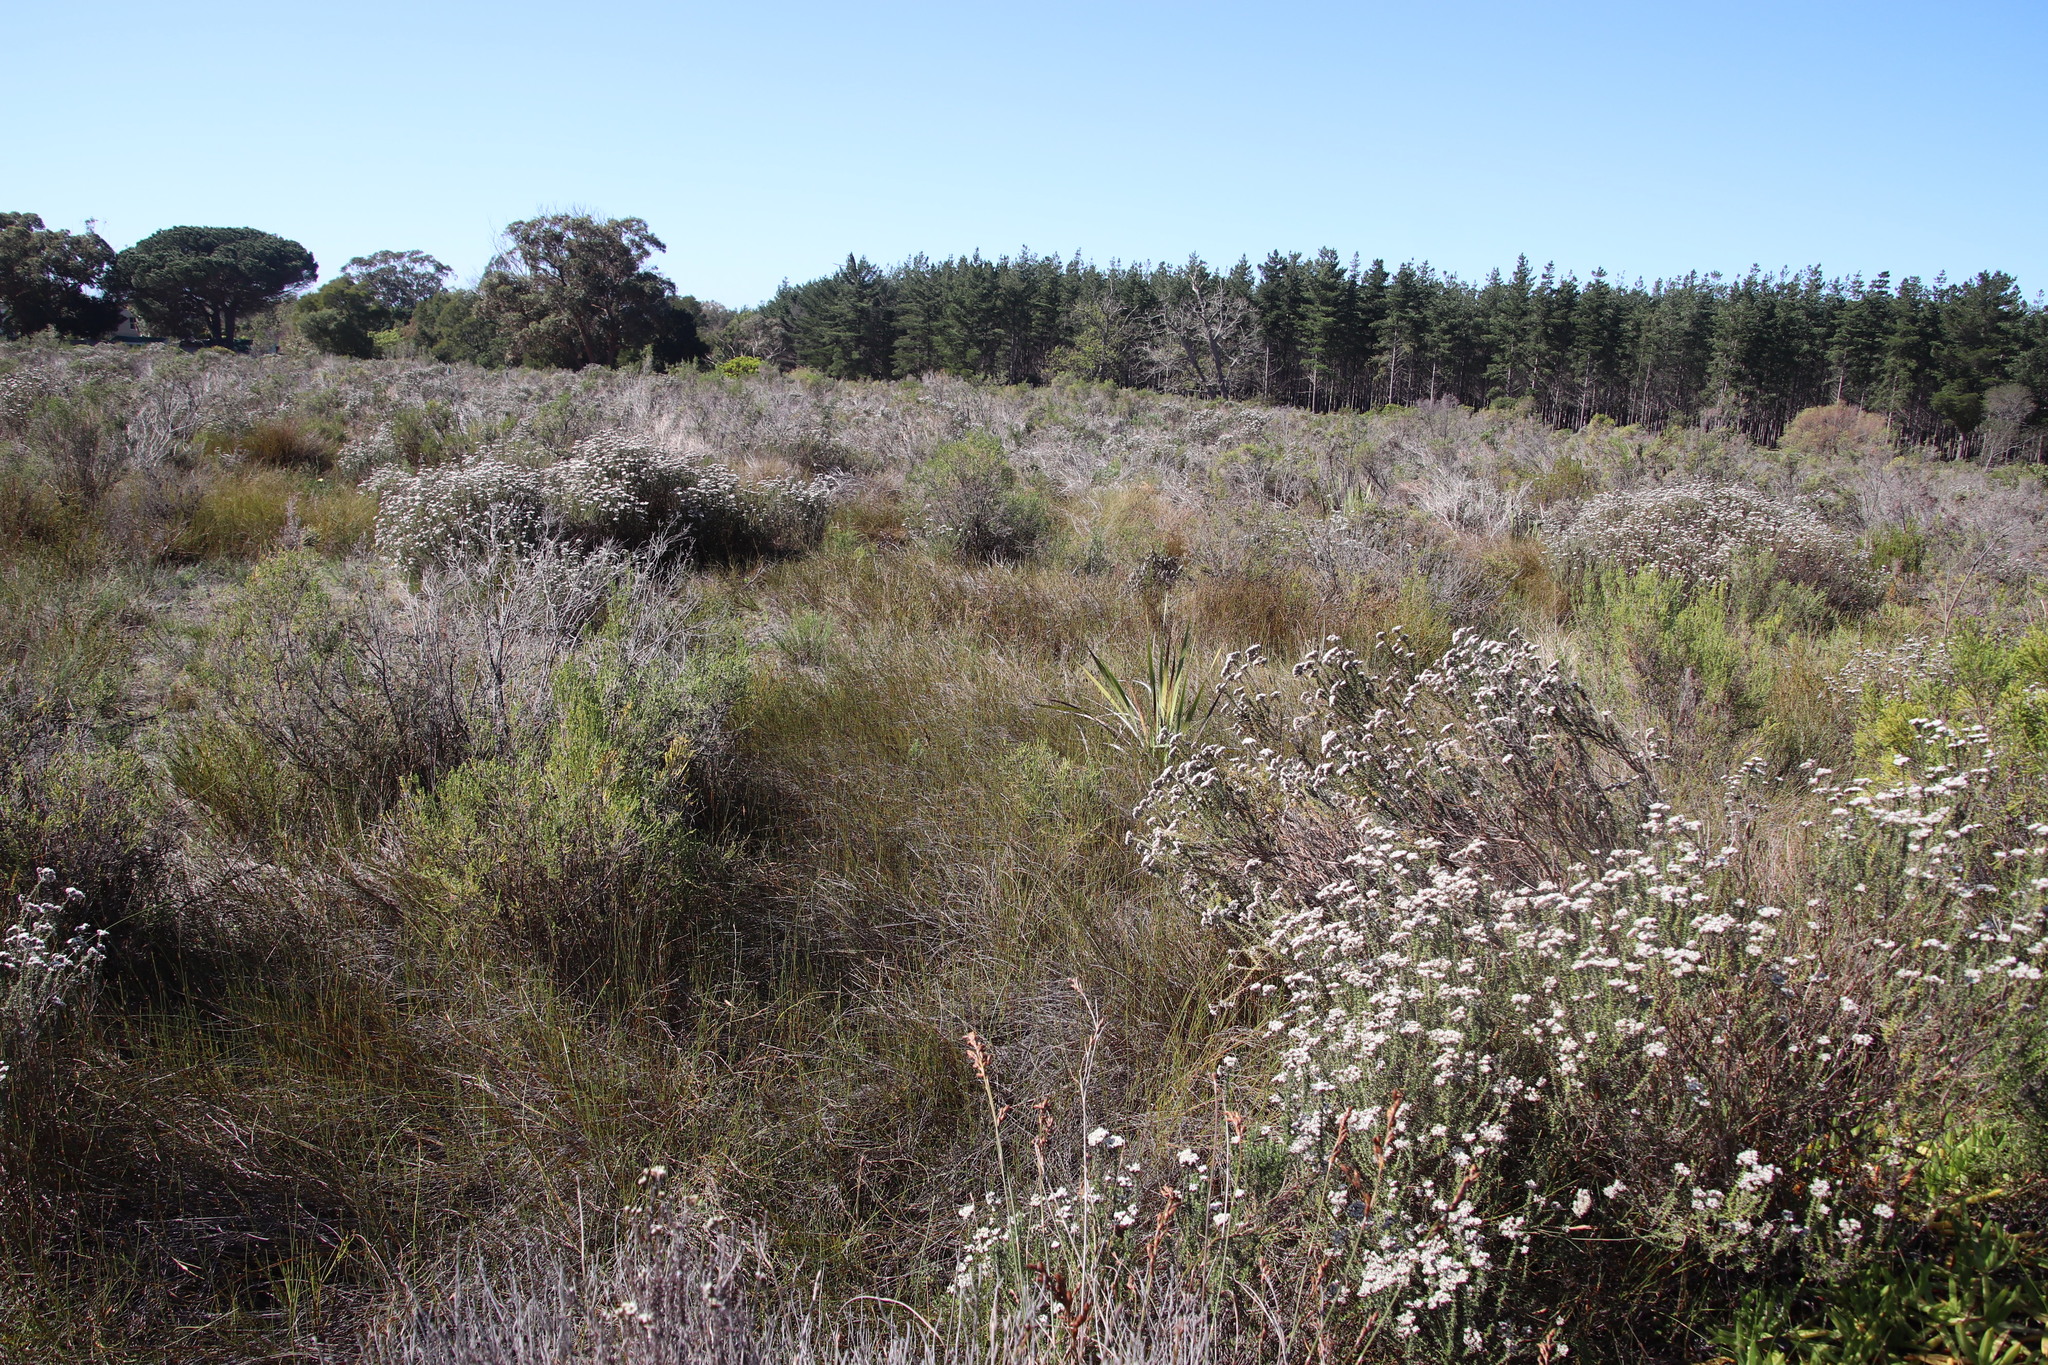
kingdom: Plantae
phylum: Tracheophyta
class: Liliopsida
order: Poales
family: Restionaceae
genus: Willdenowia
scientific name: Willdenowia sulcata
